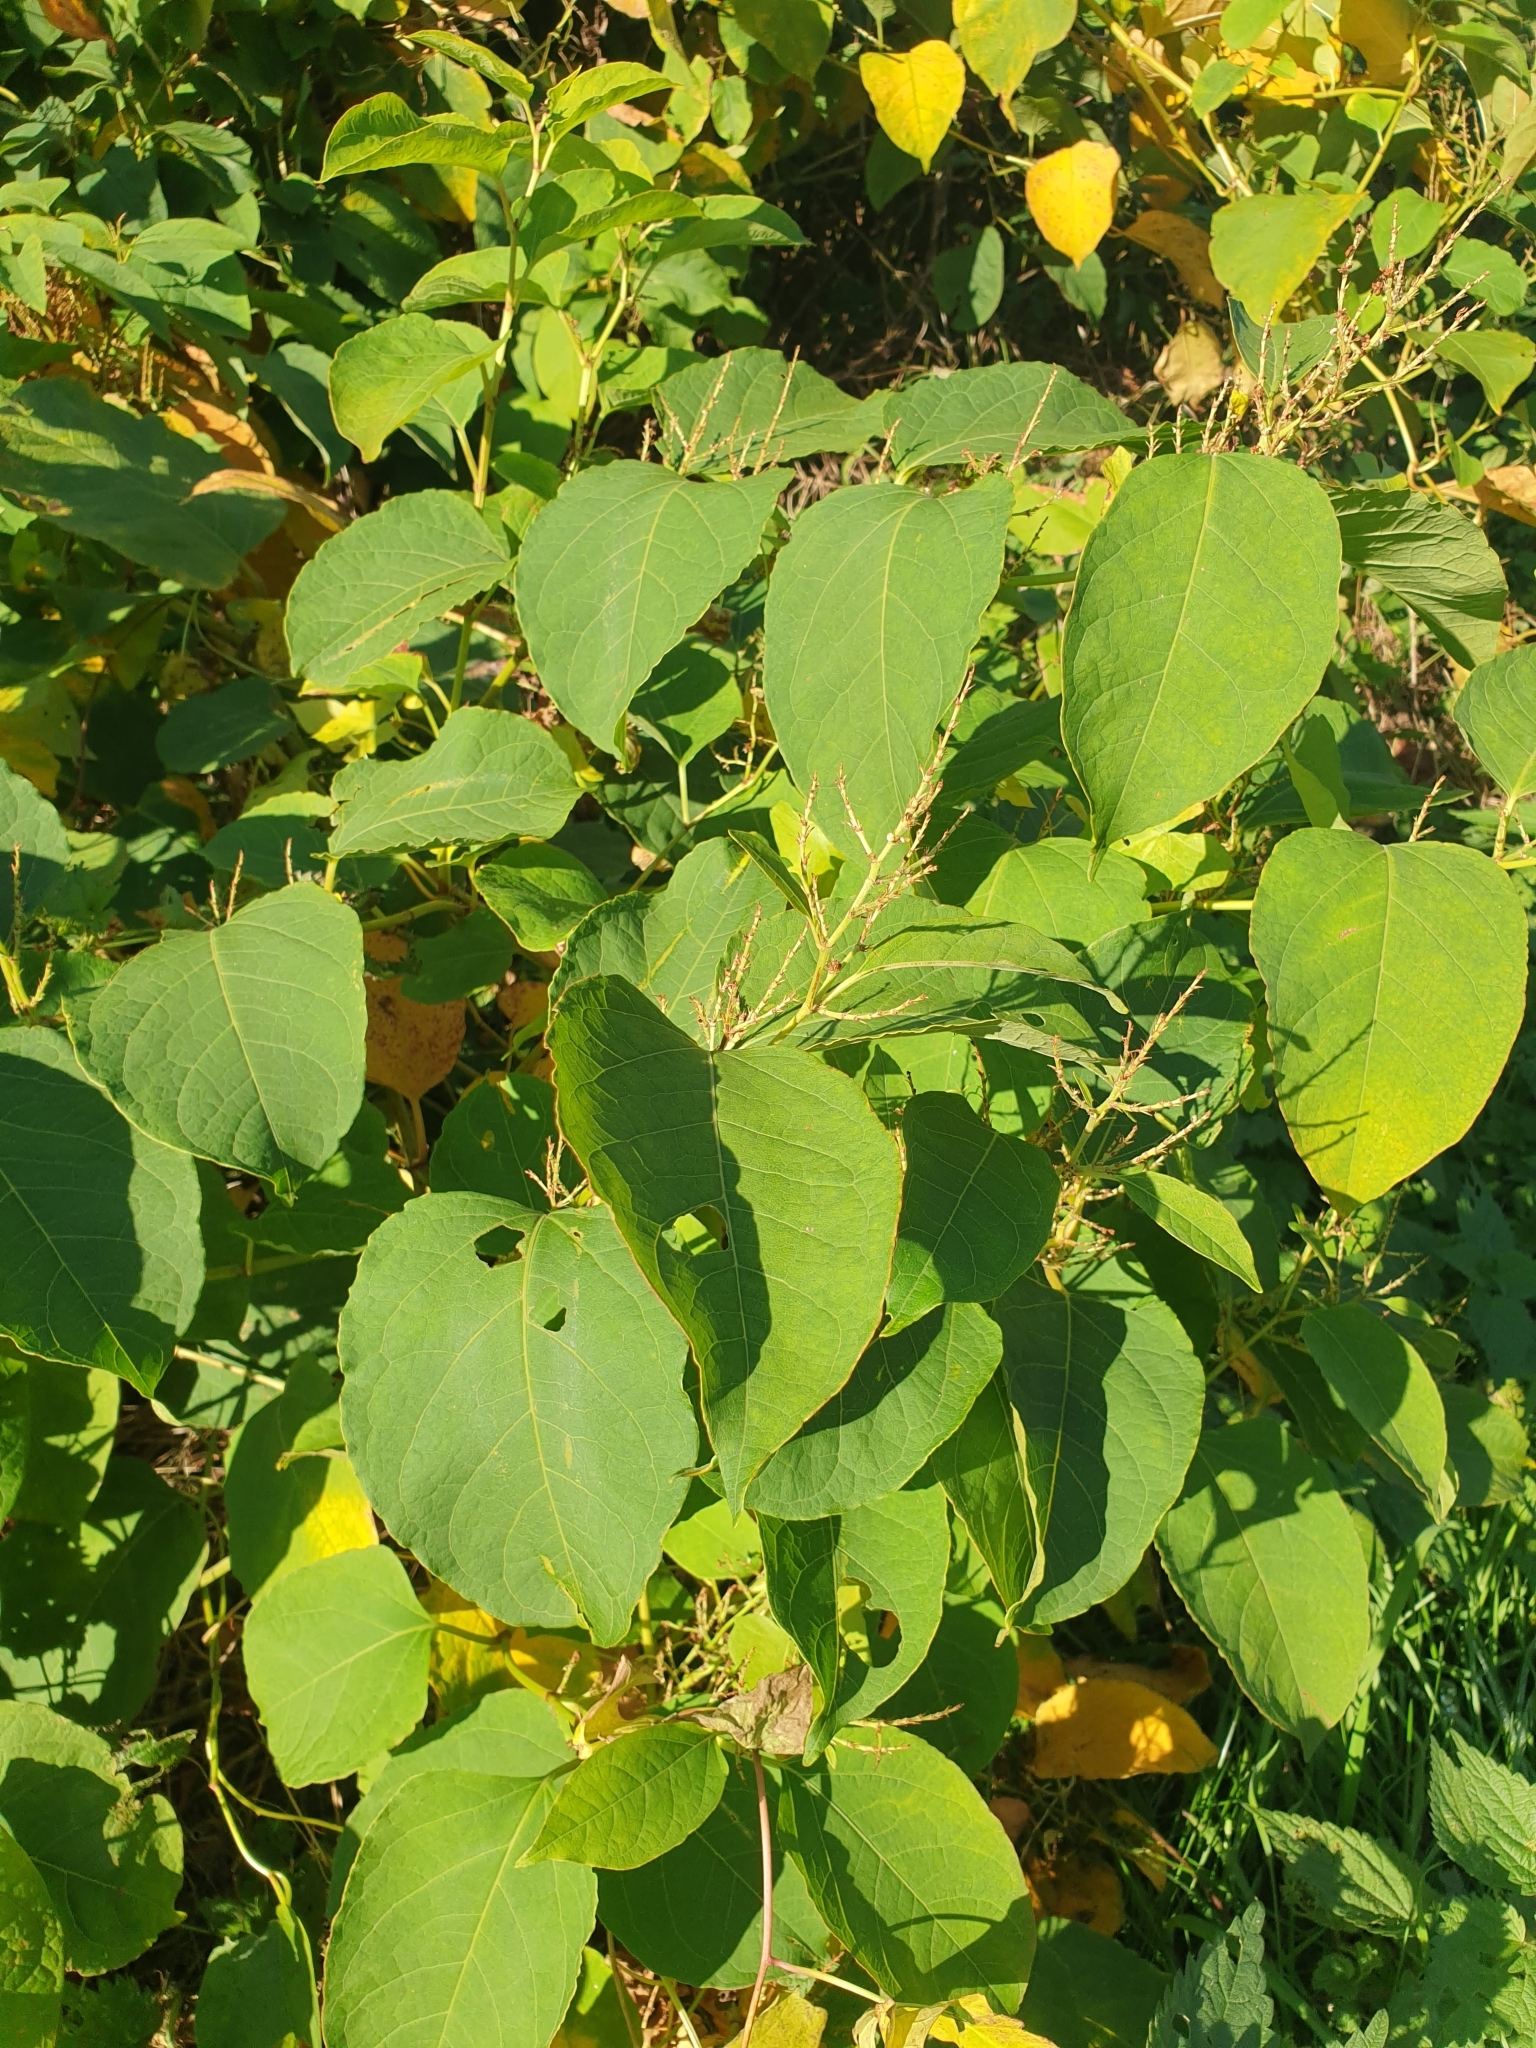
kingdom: Plantae
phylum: Tracheophyta
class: Magnoliopsida
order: Caryophyllales
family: Polygonaceae
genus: Reynoutria
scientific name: Reynoutria bohemica
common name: Bohemian knotweed
